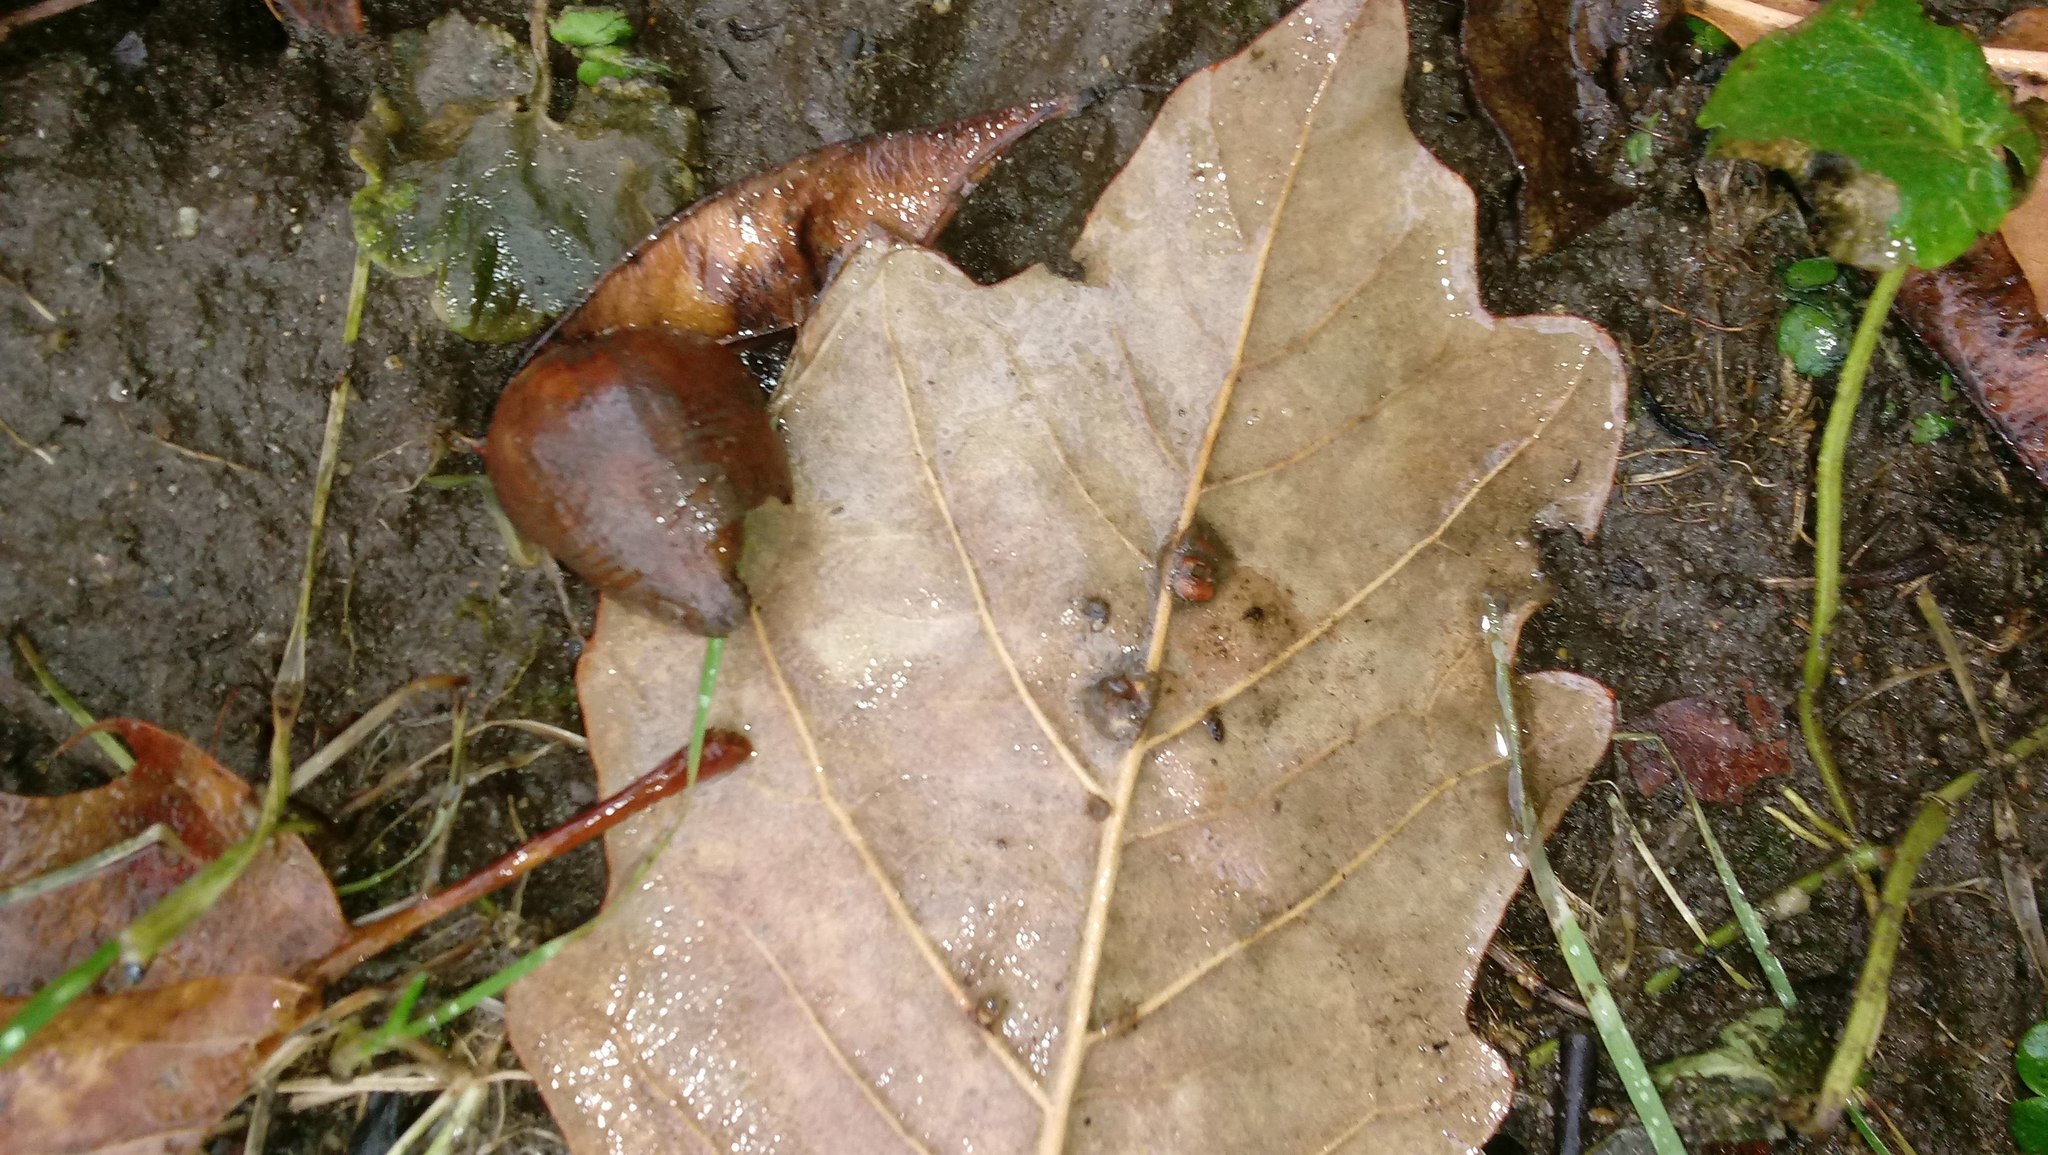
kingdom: Animalia
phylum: Arthropoda
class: Insecta
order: Hymenoptera
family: Cynipidae
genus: Andricus
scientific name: Andricus Druon ignotum
